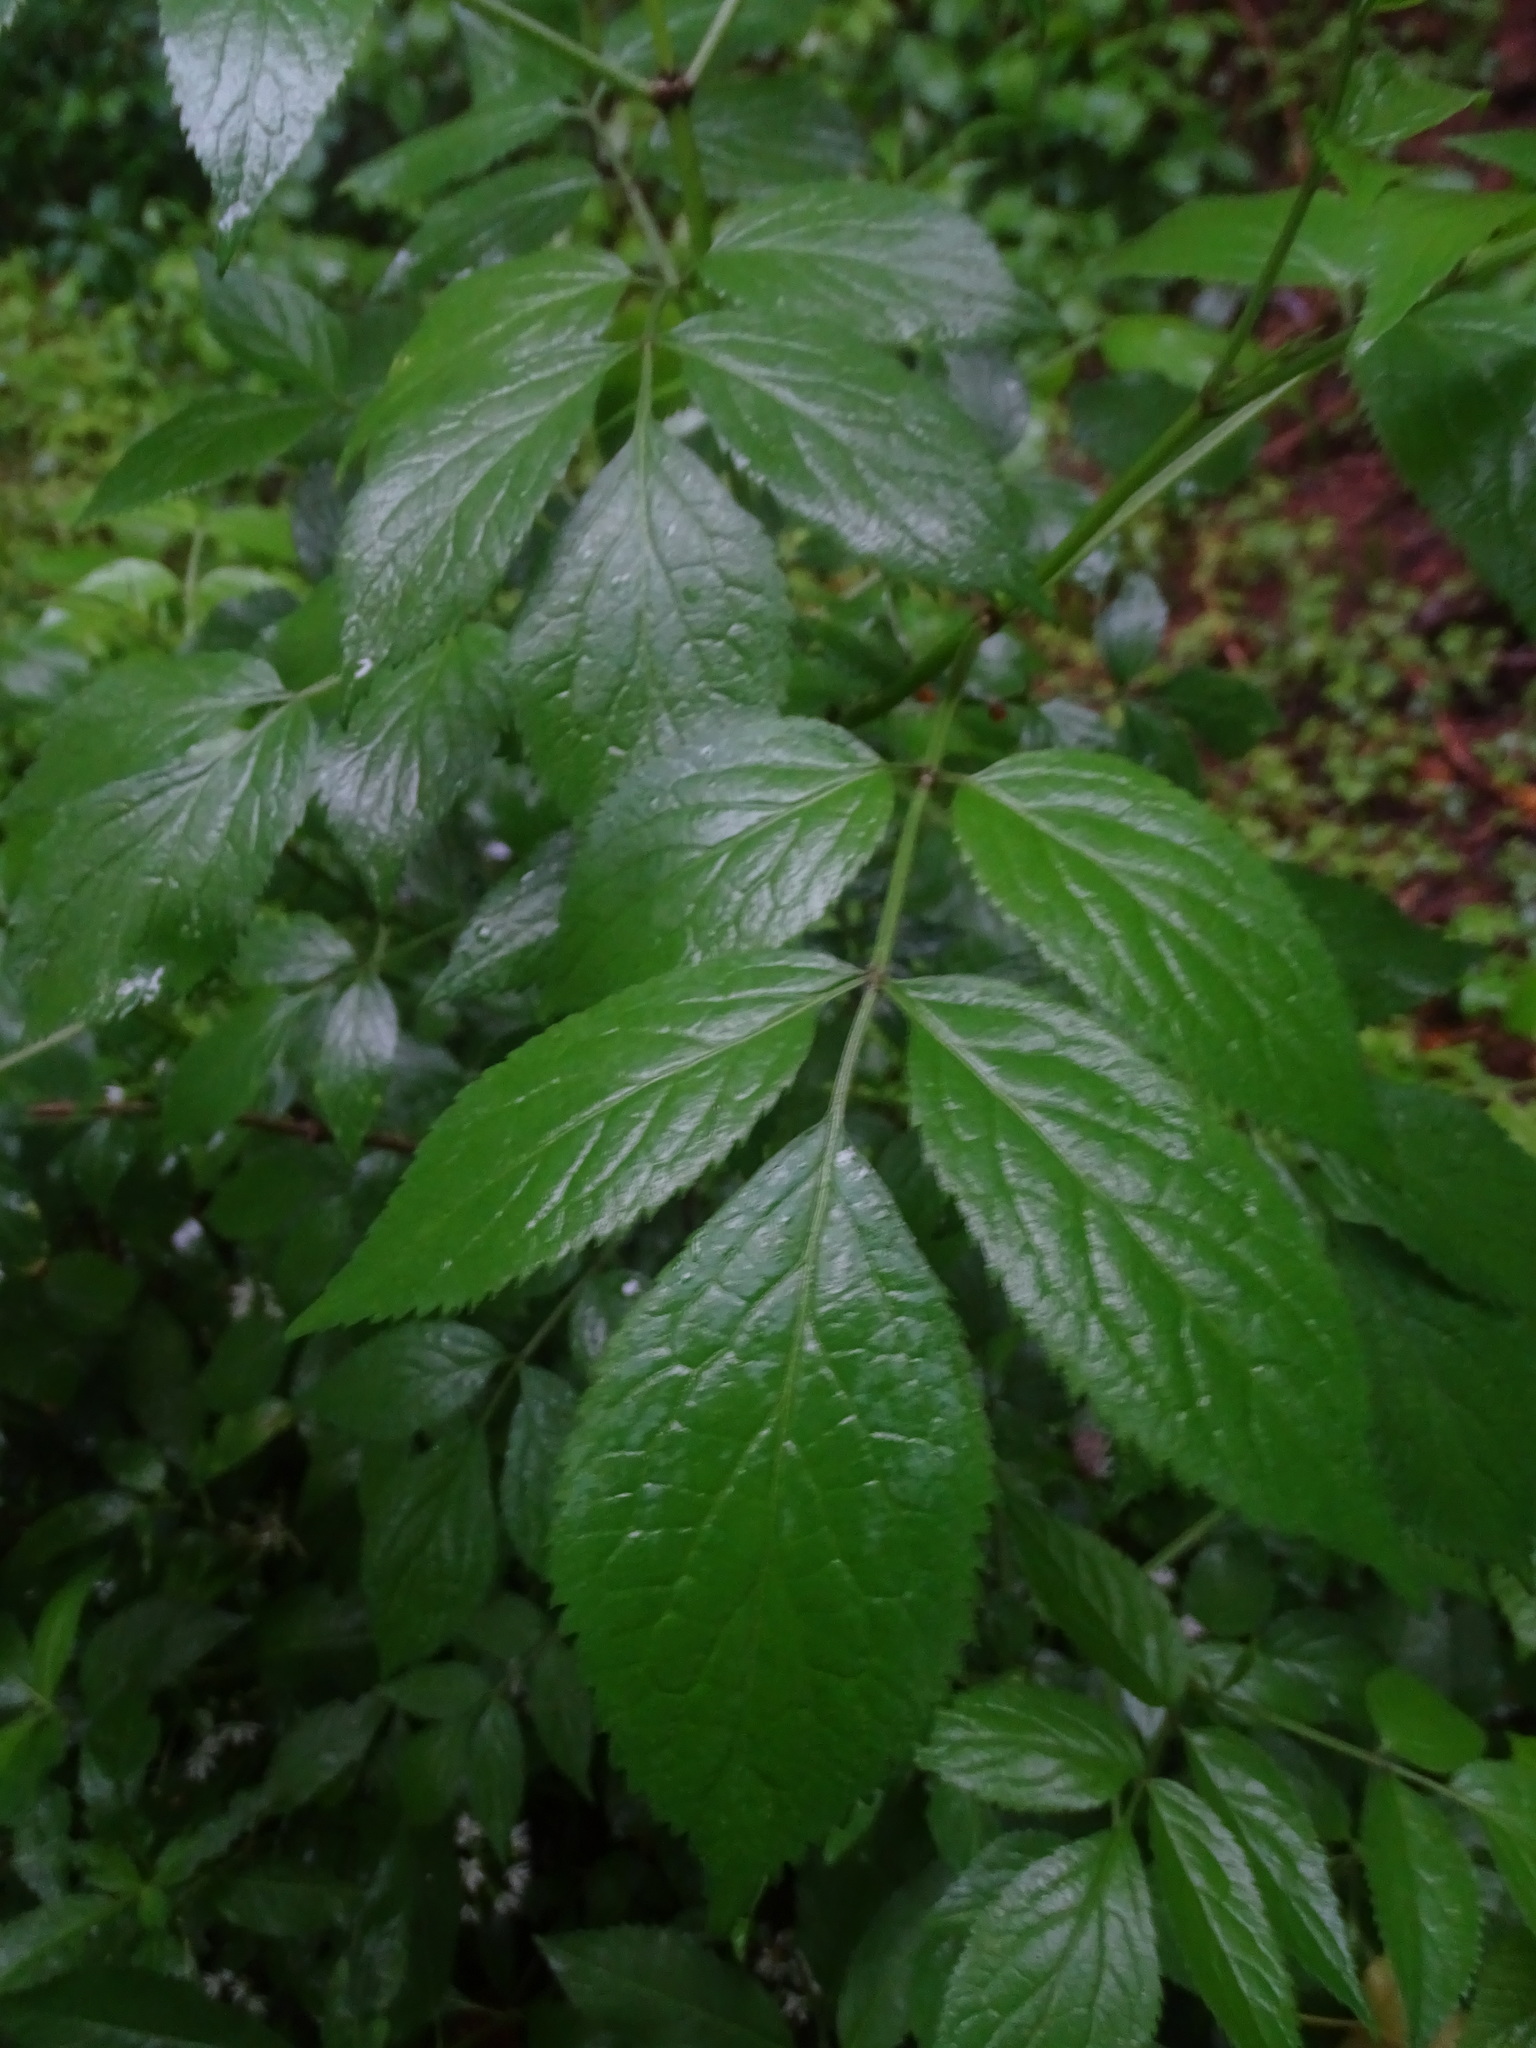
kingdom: Plantae
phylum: Tracheophyta
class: Magnoliopsida
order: Dipsacales
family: Viburnaceae
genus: Sambucus
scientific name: Sambucus nigra
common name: Elder
